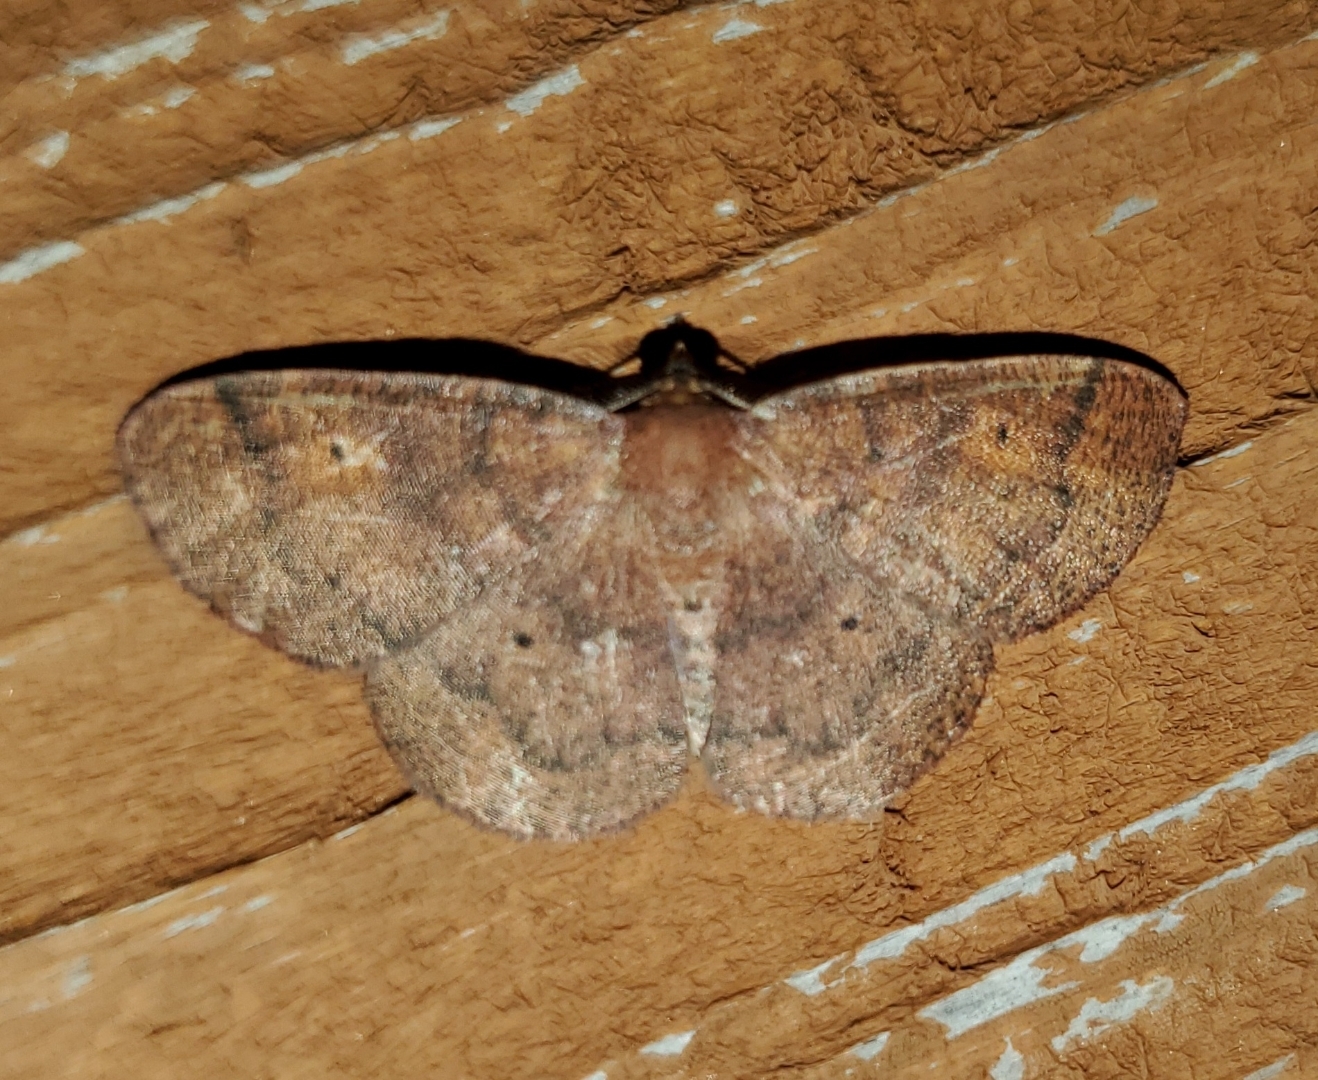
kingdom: Animalia
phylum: Arthropoda
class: Insecta
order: Lepidoptera
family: Geometridae
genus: Ilexia
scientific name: Ilexia intractata
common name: Black-dotted ruddy moth
